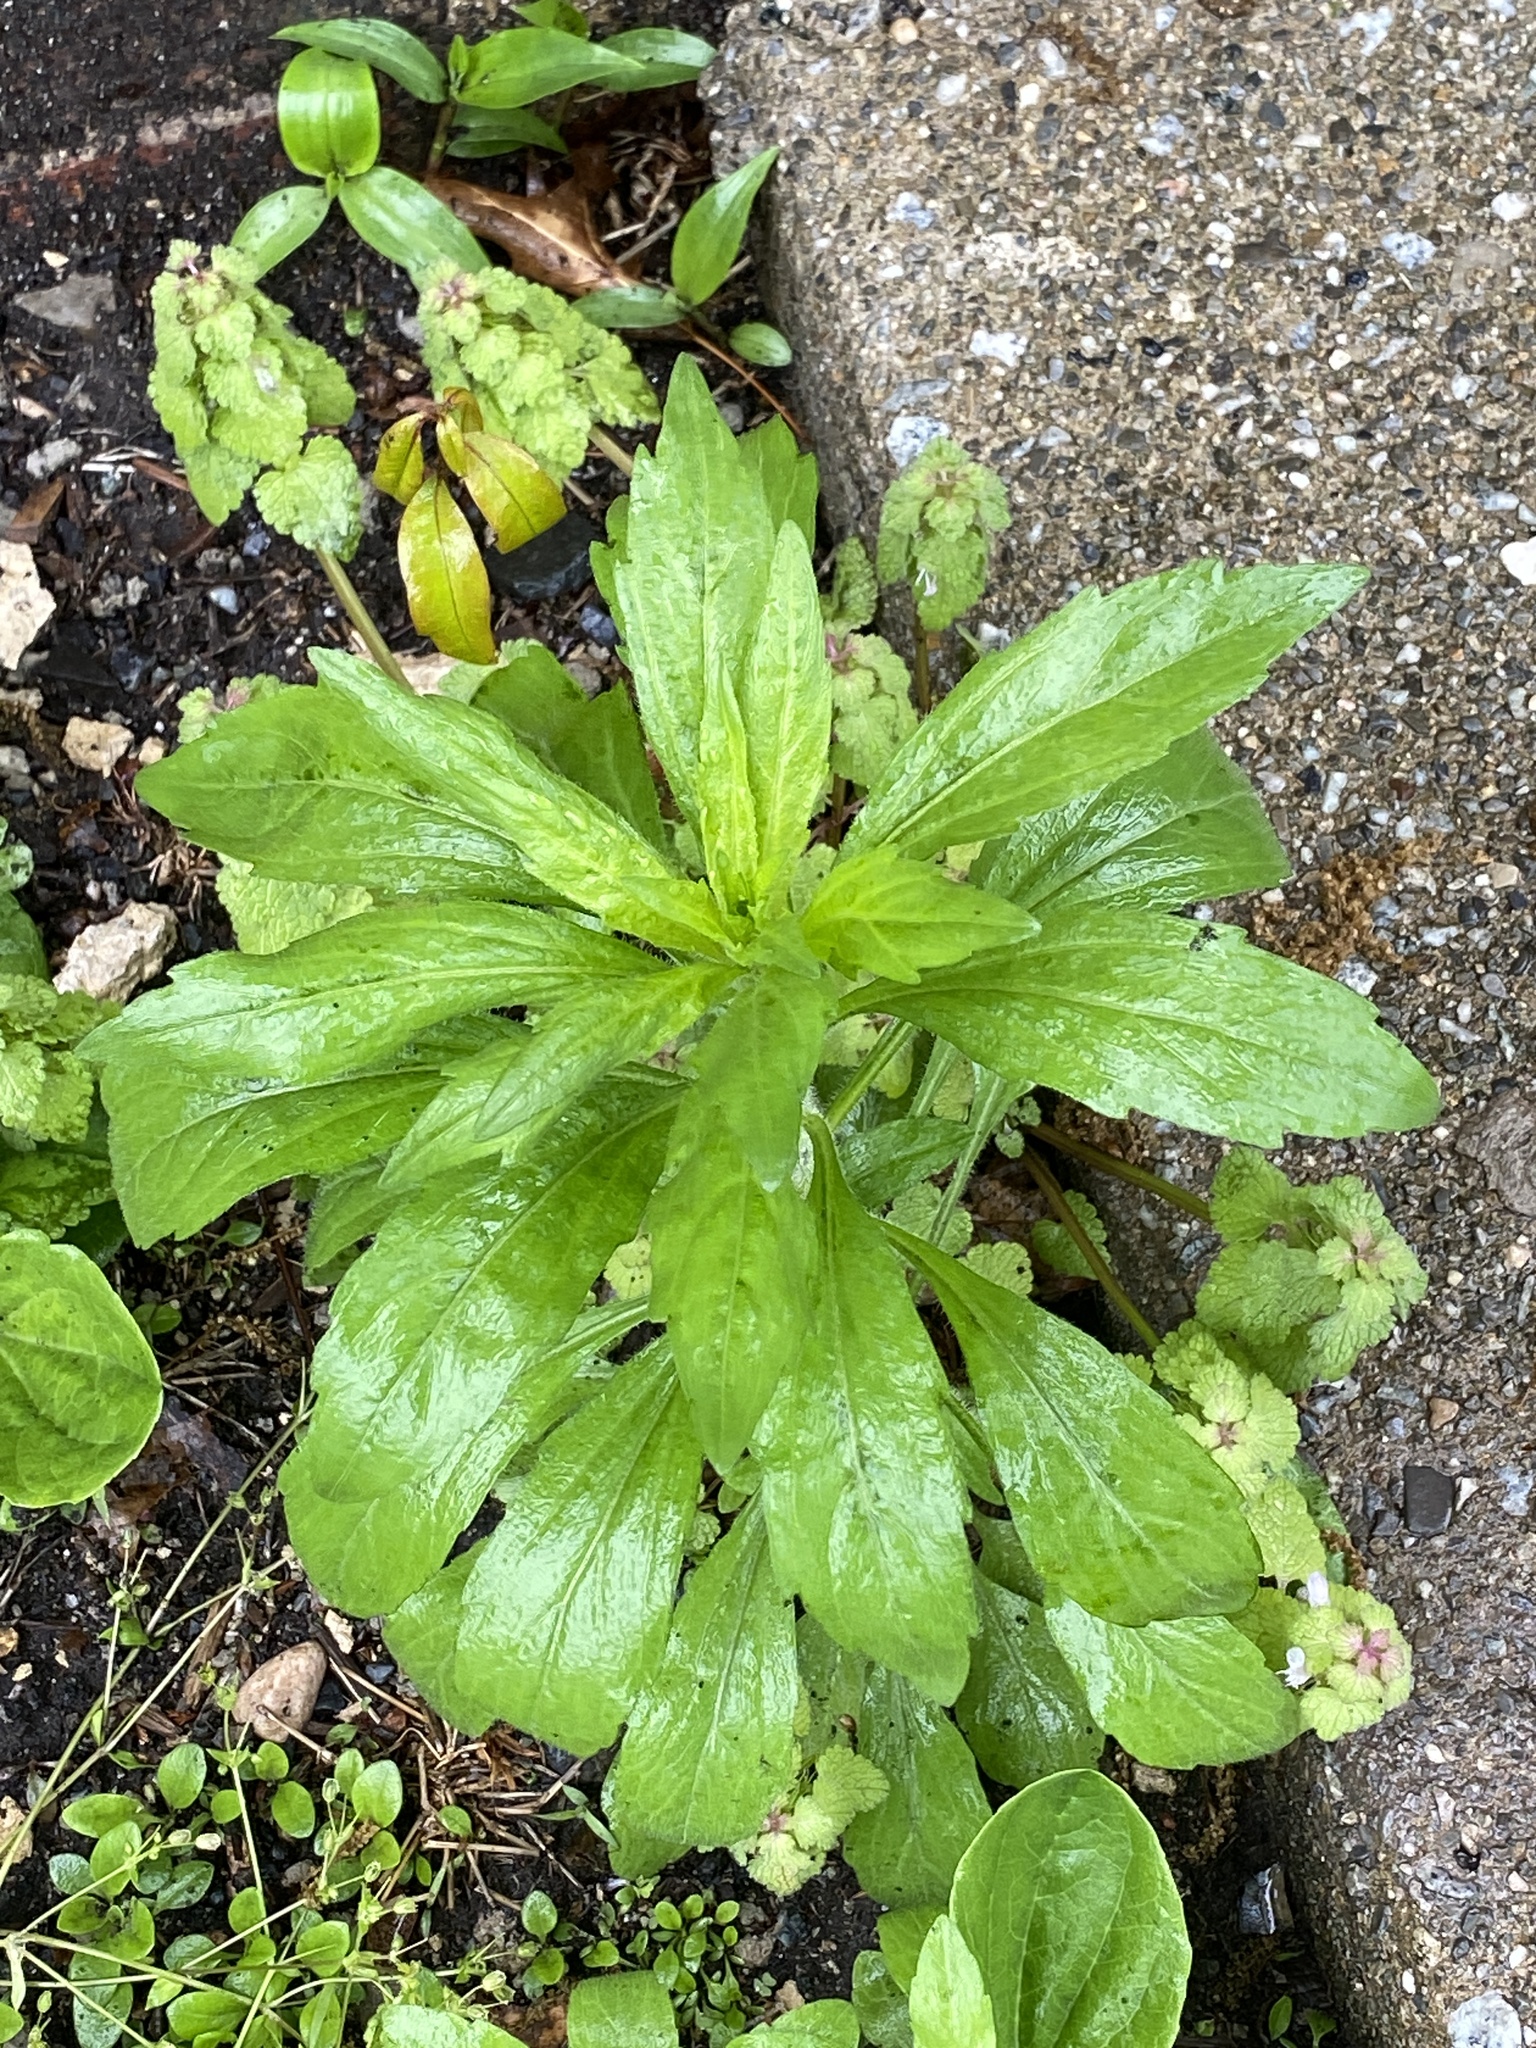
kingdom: Plantae
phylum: Tracheophyta
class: Magnoliopsida
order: Asterales
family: Asteraceae
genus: Erigeron
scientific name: Erigeron canadensis
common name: Canadian fleabane
